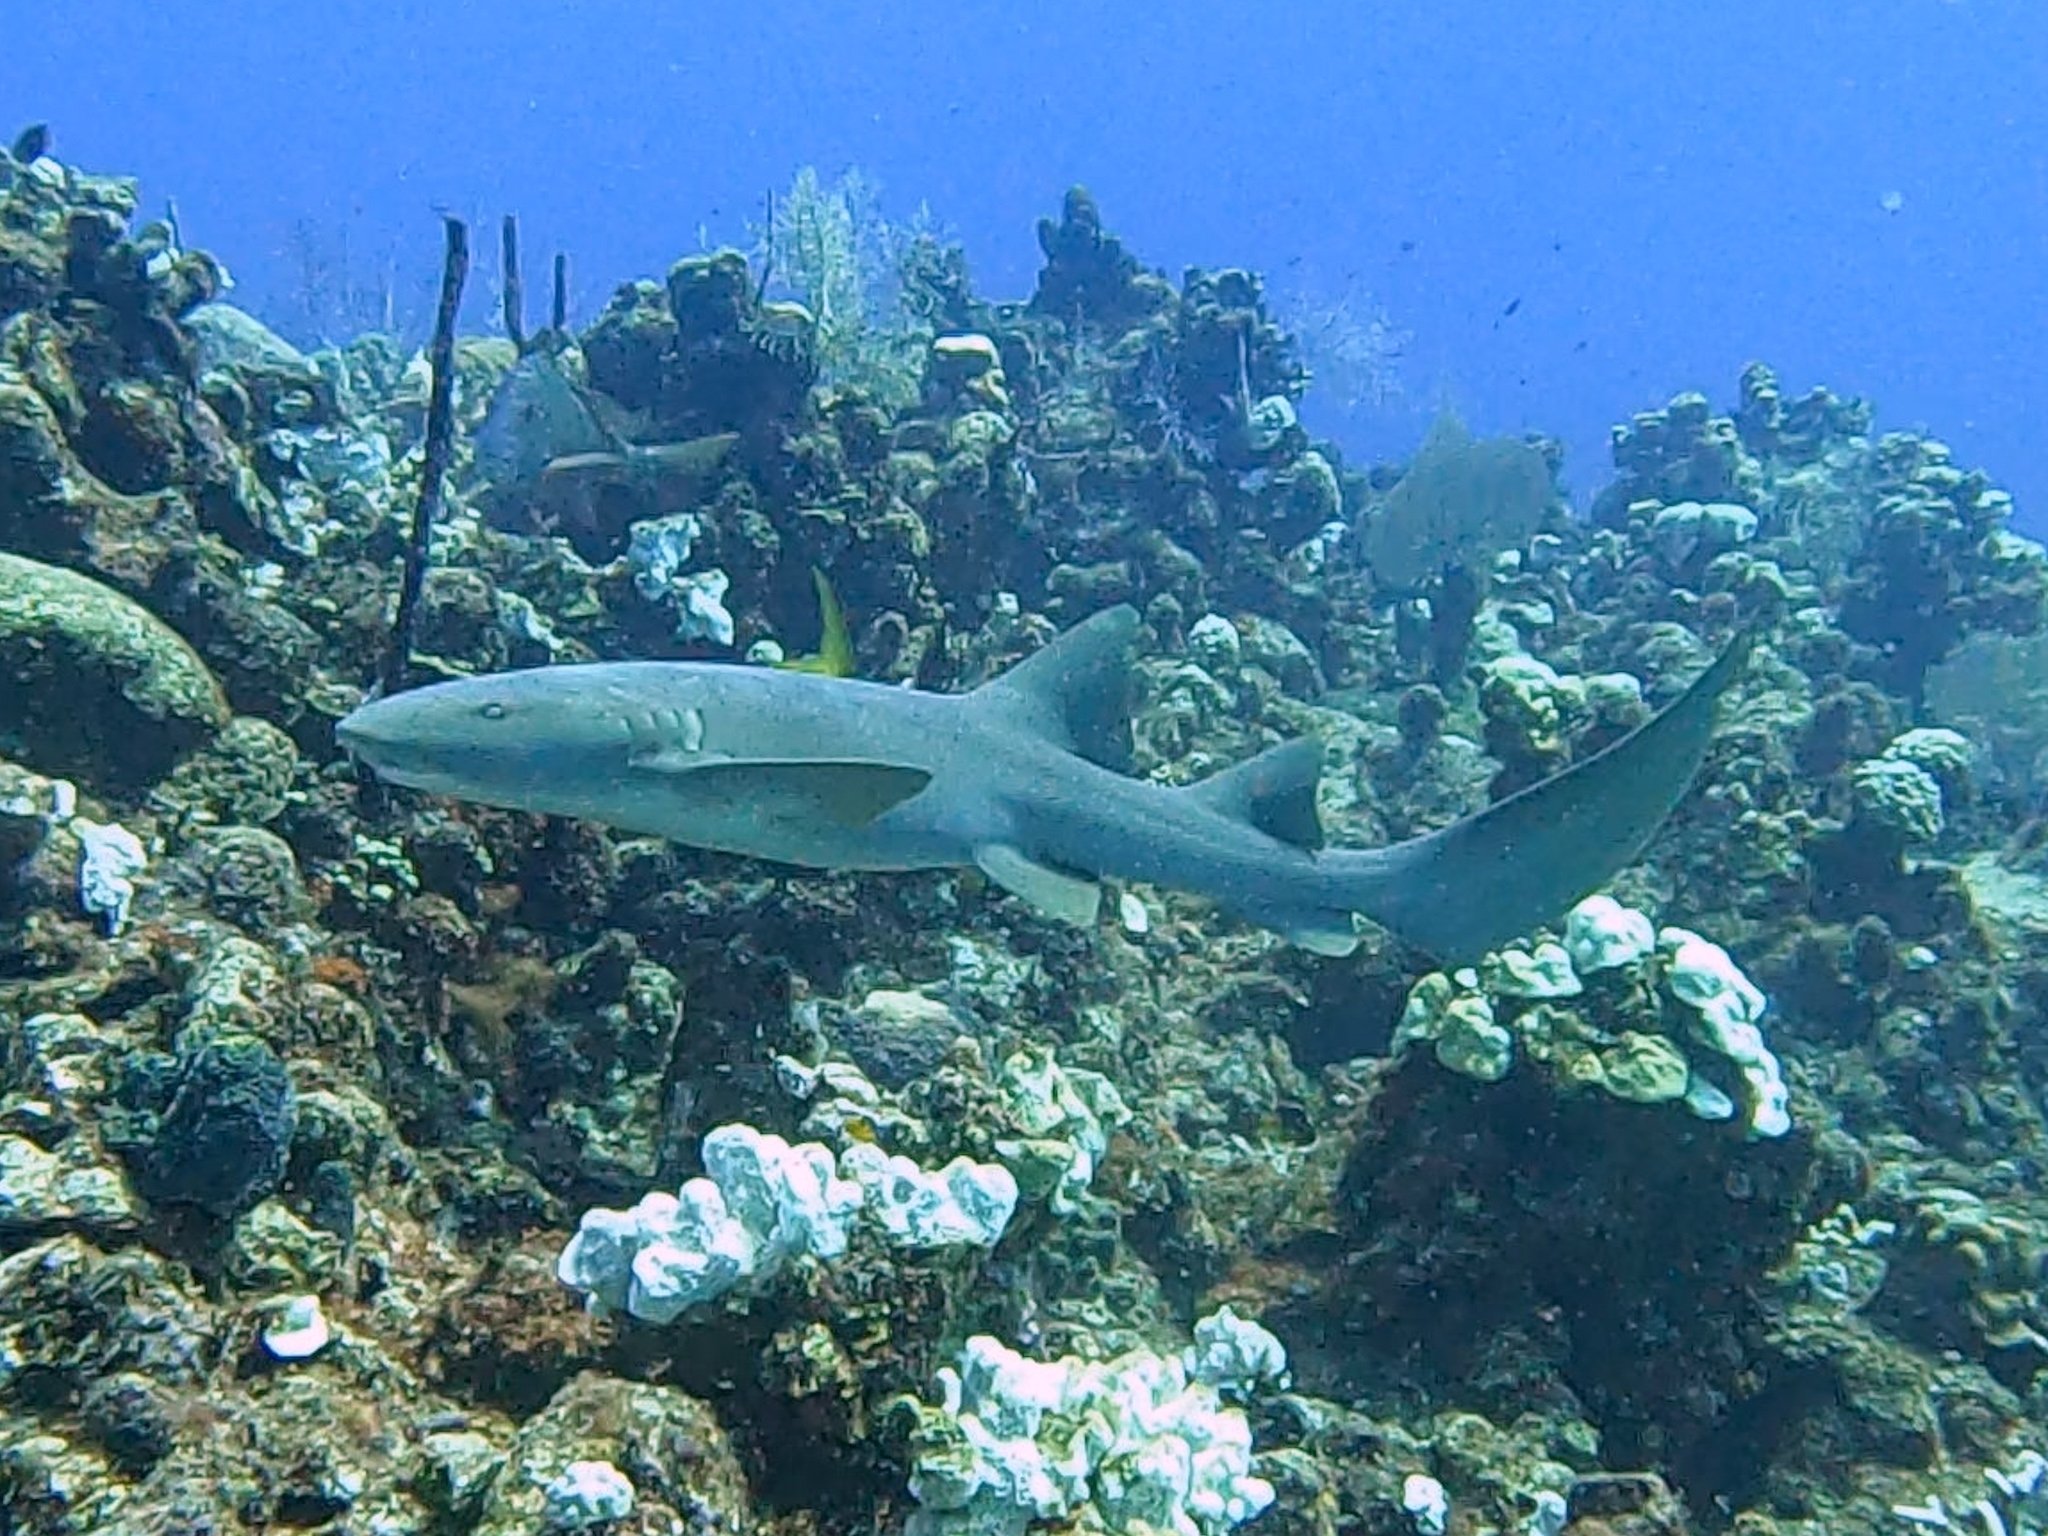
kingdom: Animalia
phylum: Chordata
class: Elasmobranchii
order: Orectolobiformes
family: Ginglymostomatidae
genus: Ginglymostoma
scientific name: Ginglymostoma cirratum
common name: Nurse shark
